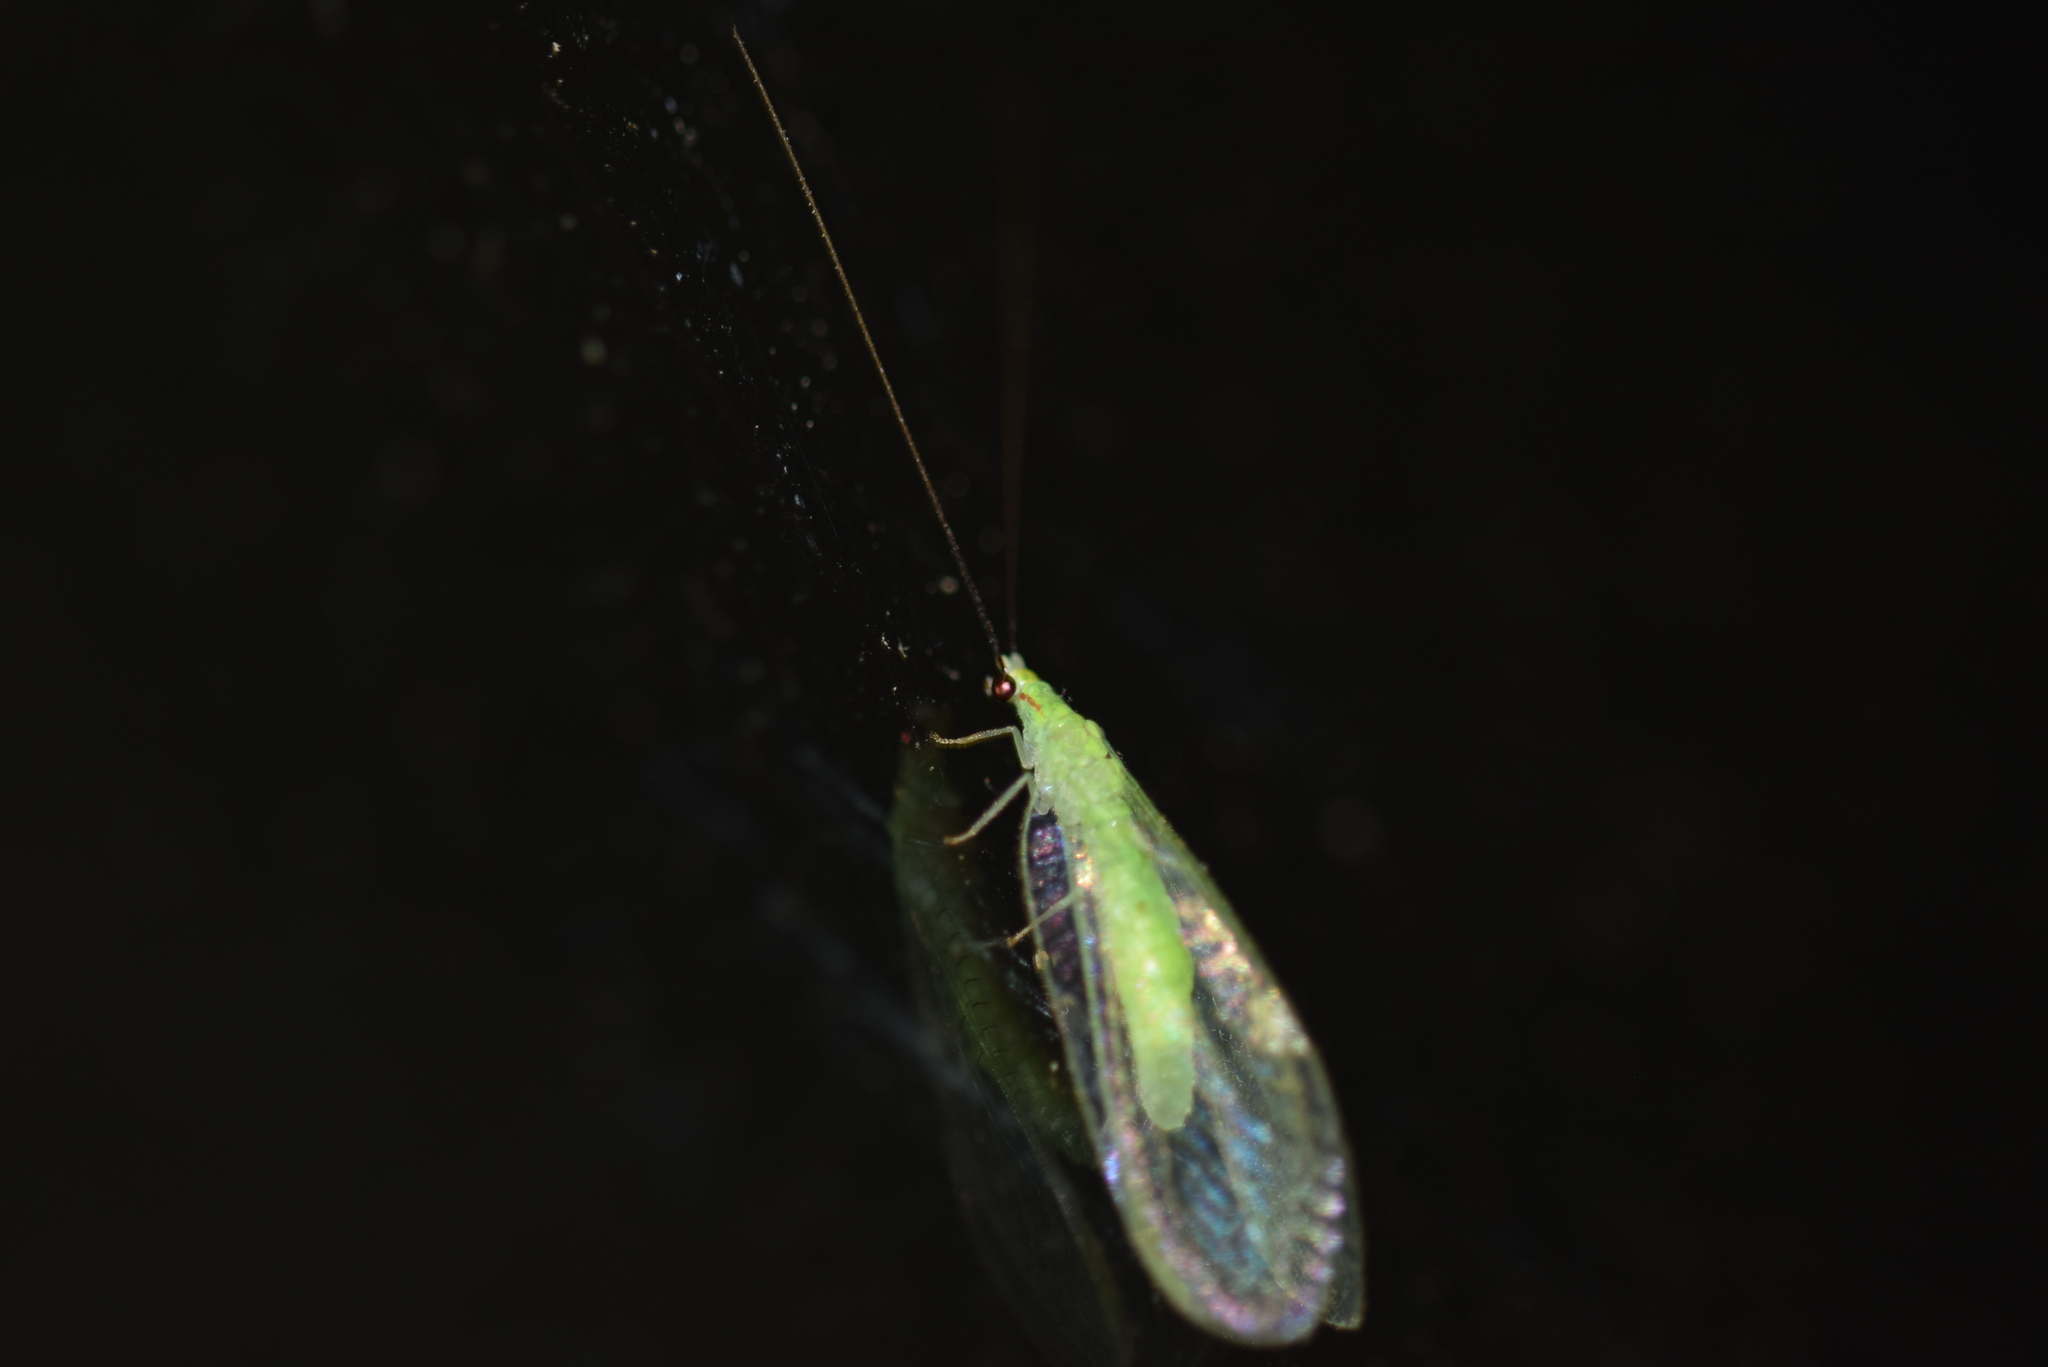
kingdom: Animalia
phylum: Arthropoda
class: Insecta
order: Neuroptera
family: Chrysopidae
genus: Ceraeochrysa
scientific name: Ceraeochrysa lineaticornis
